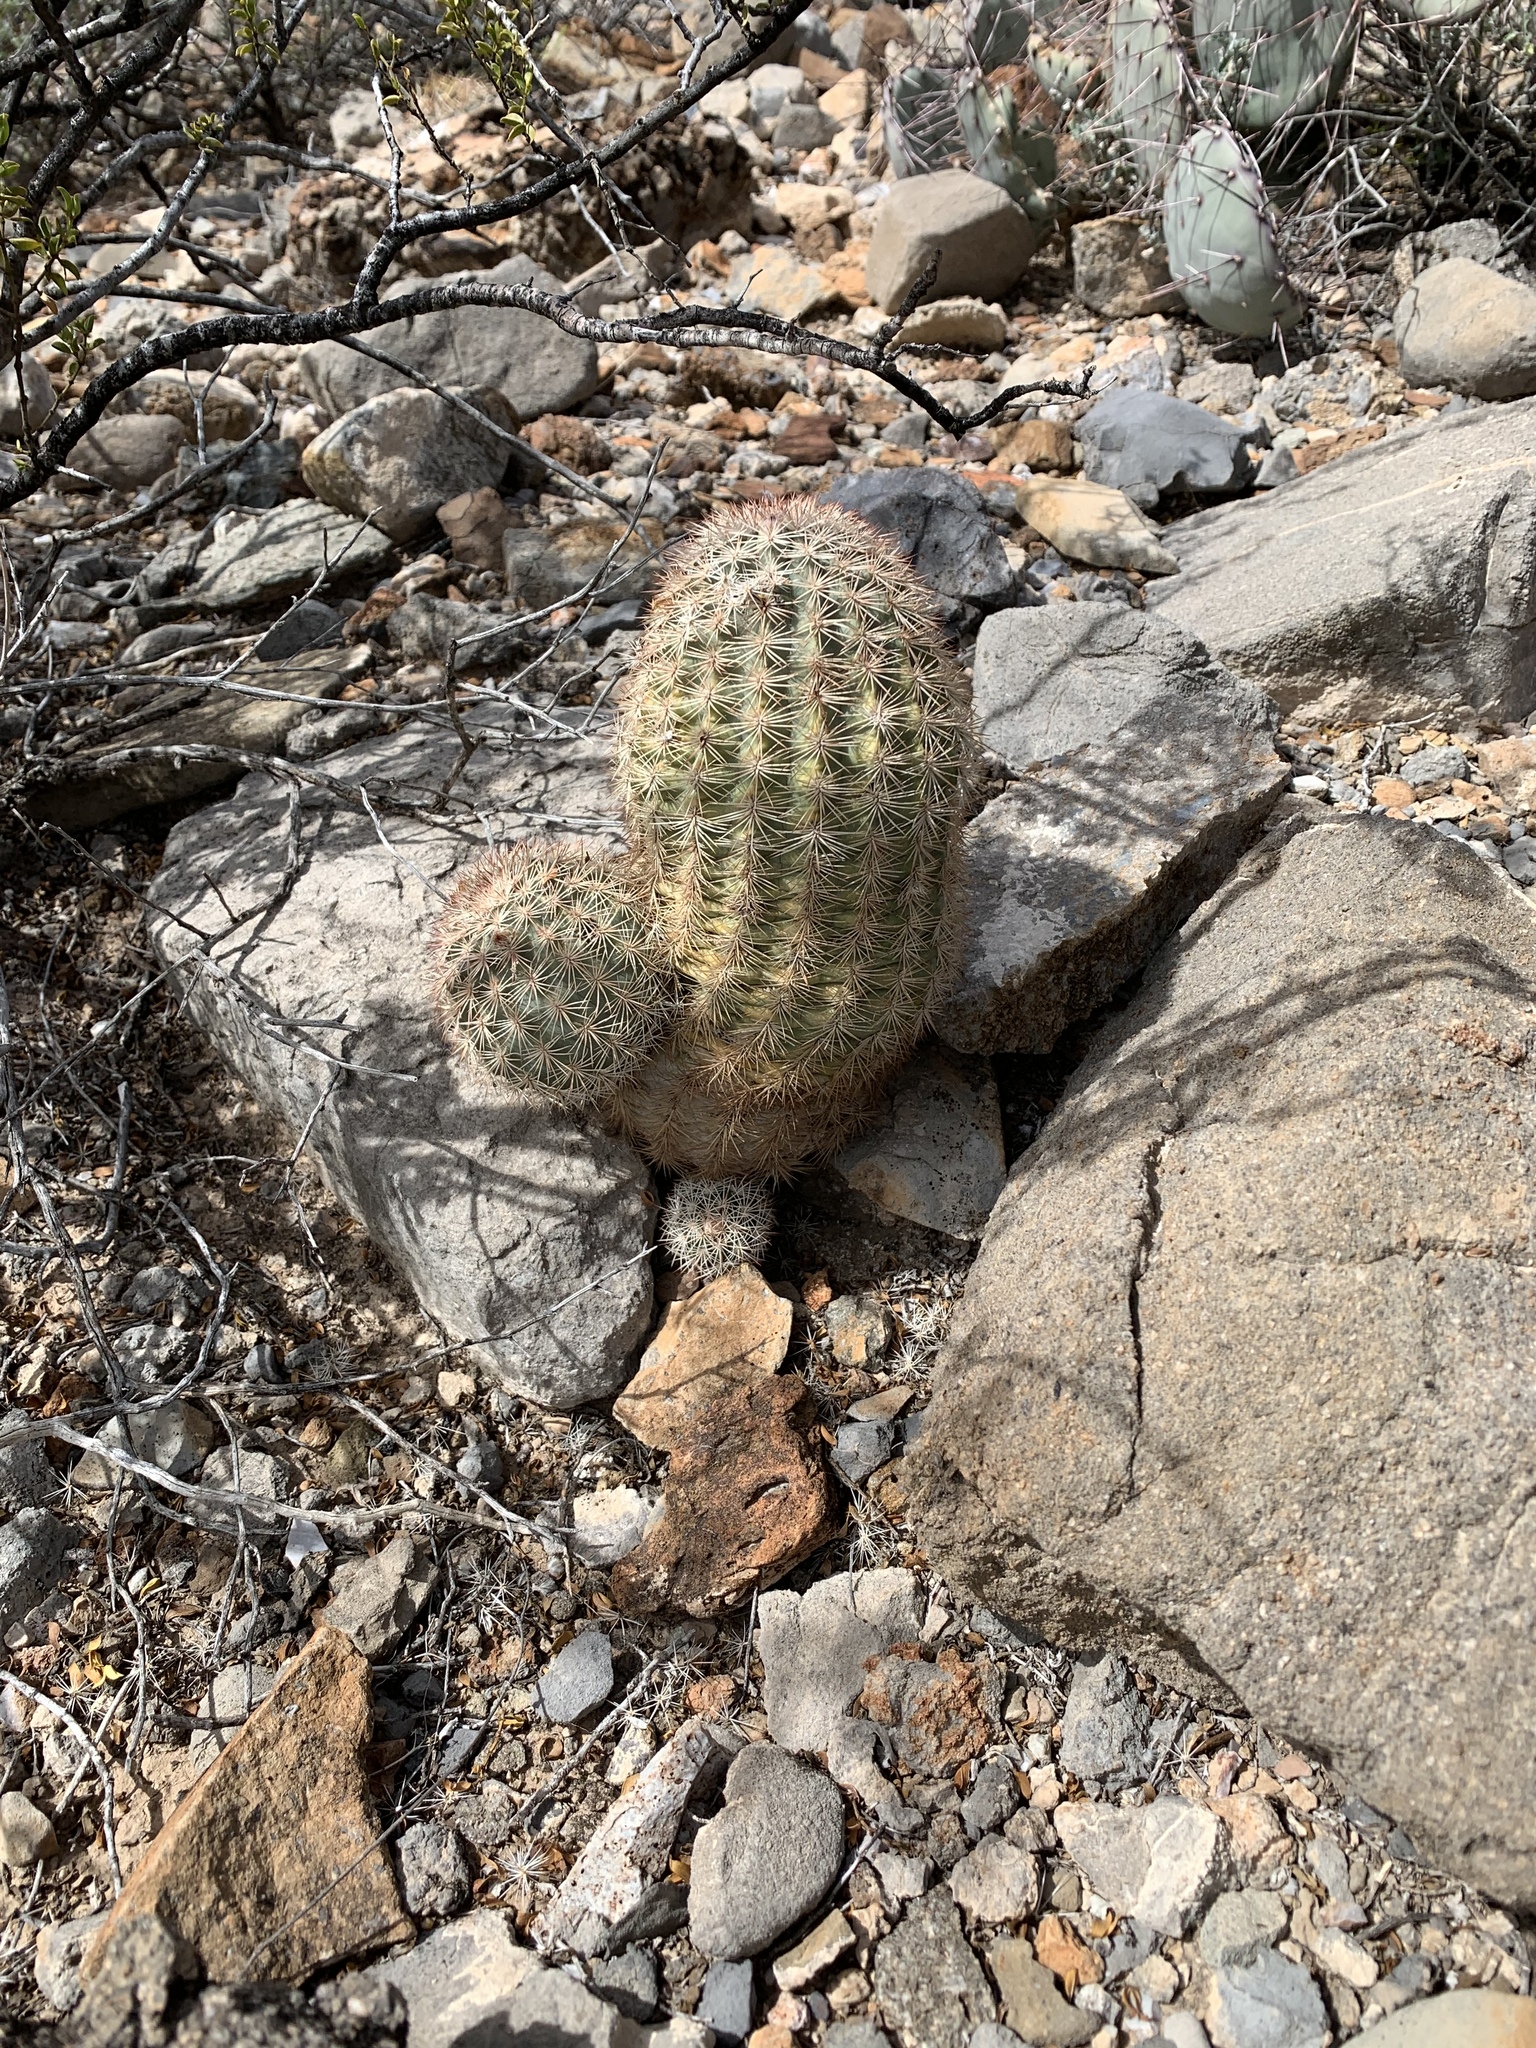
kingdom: Plantae
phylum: Tracheophyta
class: Magnoliopsida
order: Caryophyllales
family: Cactaceae
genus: Echinocereus
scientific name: Echinocereus dasyacanthus
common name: Spiny hedgehog cactus
